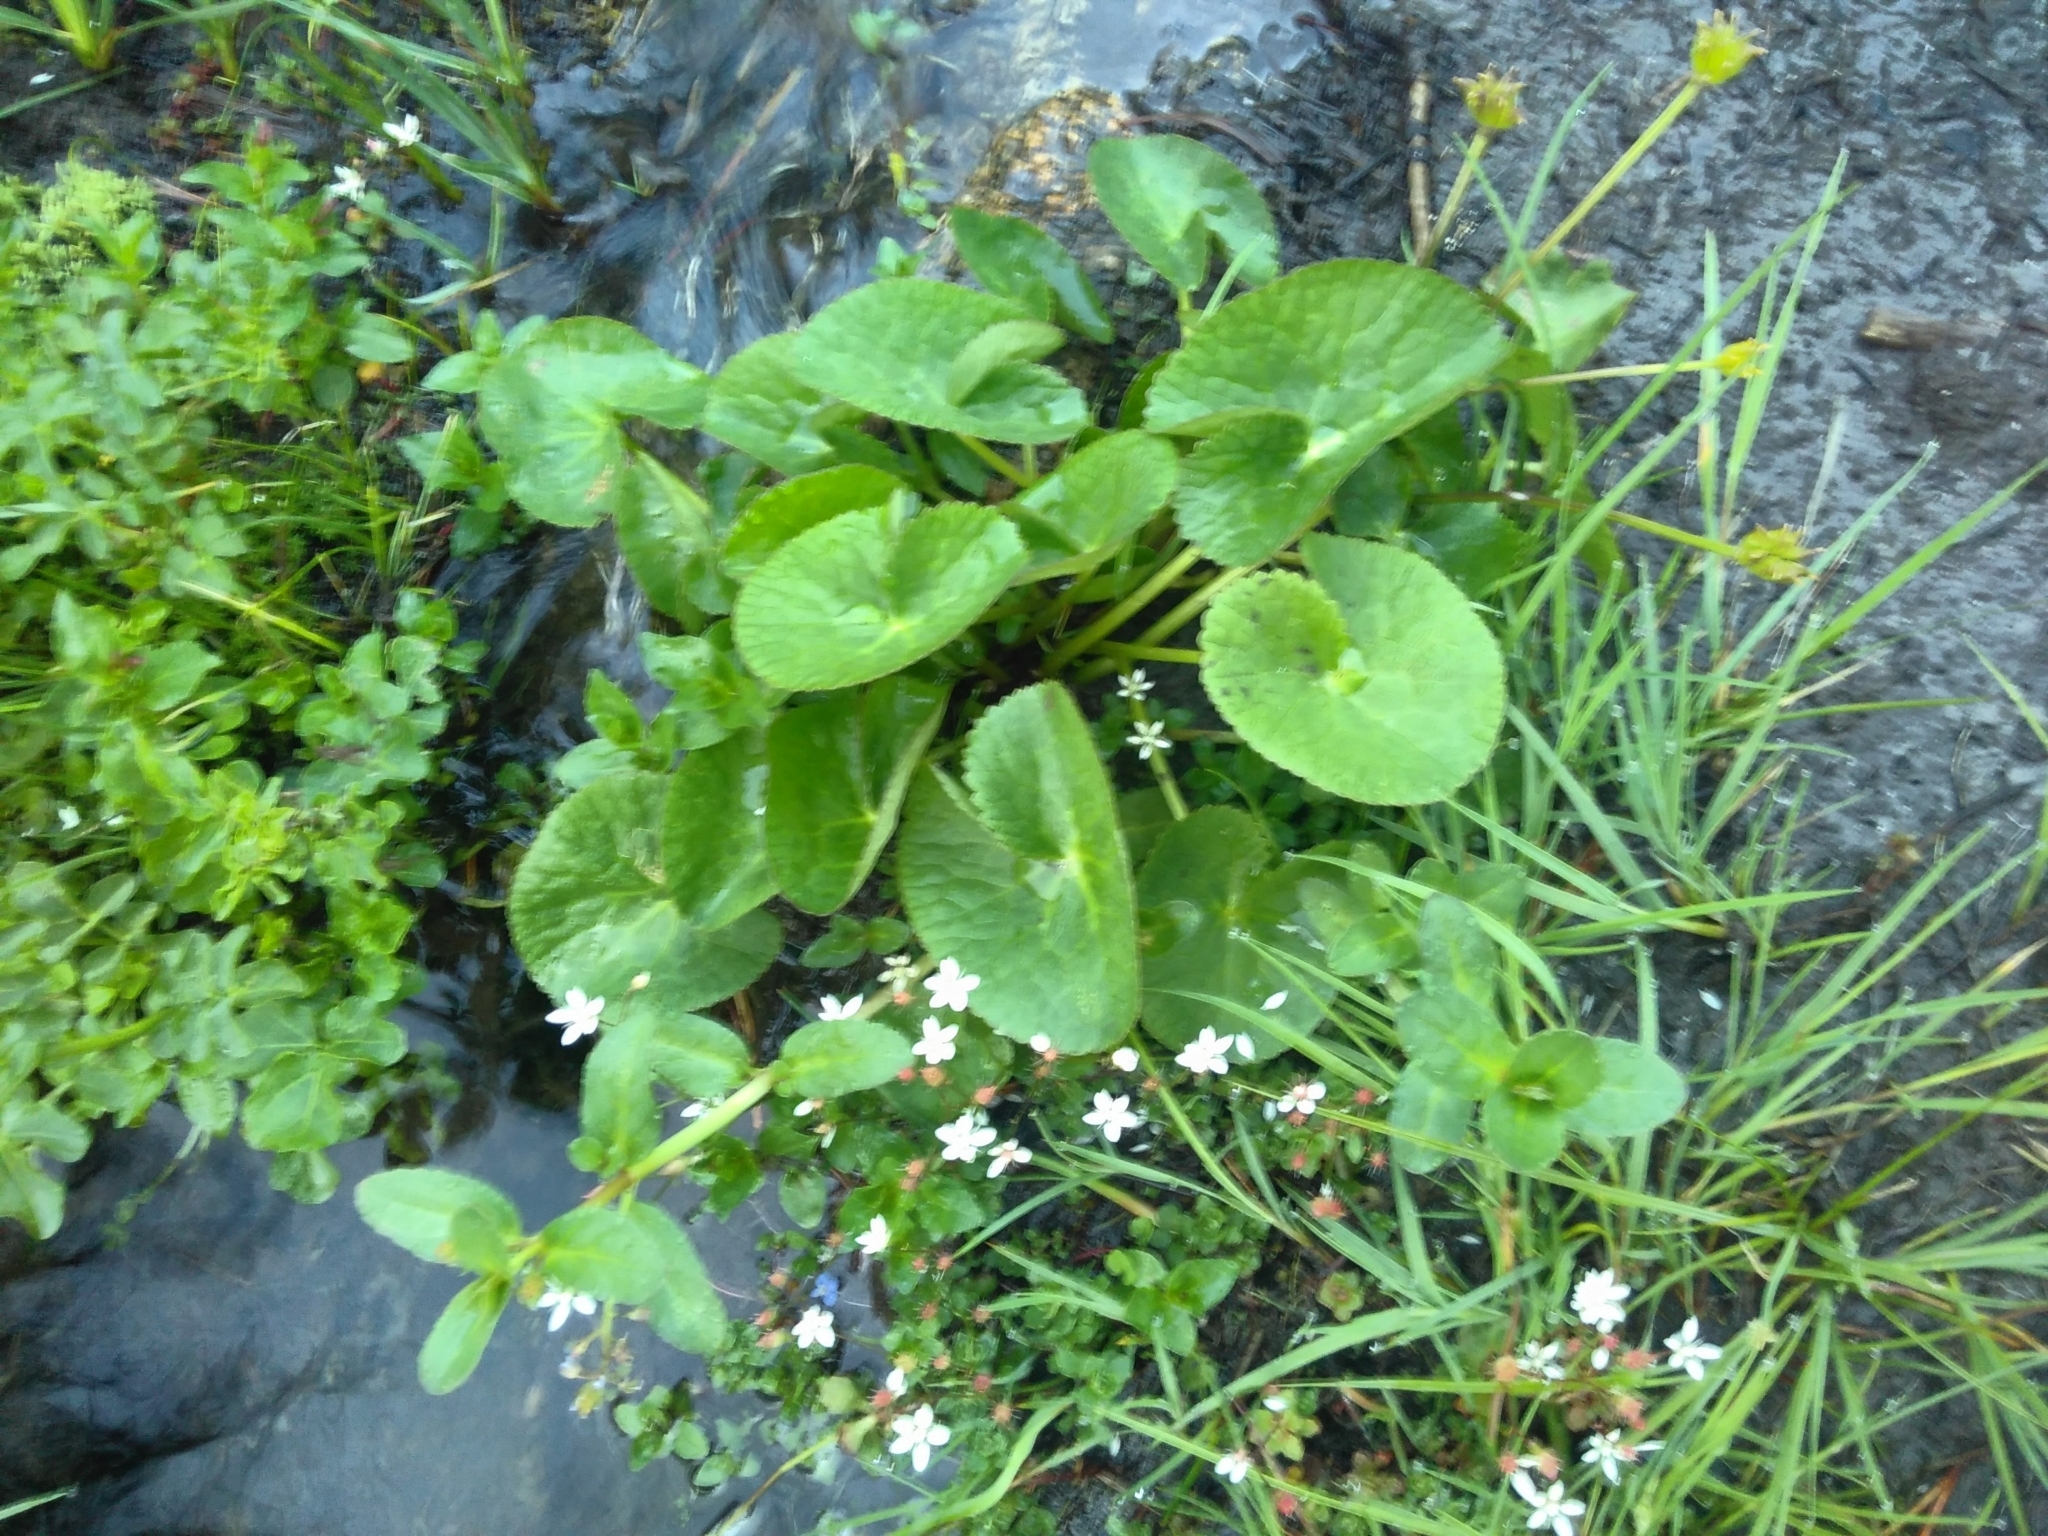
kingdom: Plantae
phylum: Tracheophyta
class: Magnoliopsida
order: Ranunculales
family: Ranunculaceae
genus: Caltha
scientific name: Caltha palustris
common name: Marsh marigold
